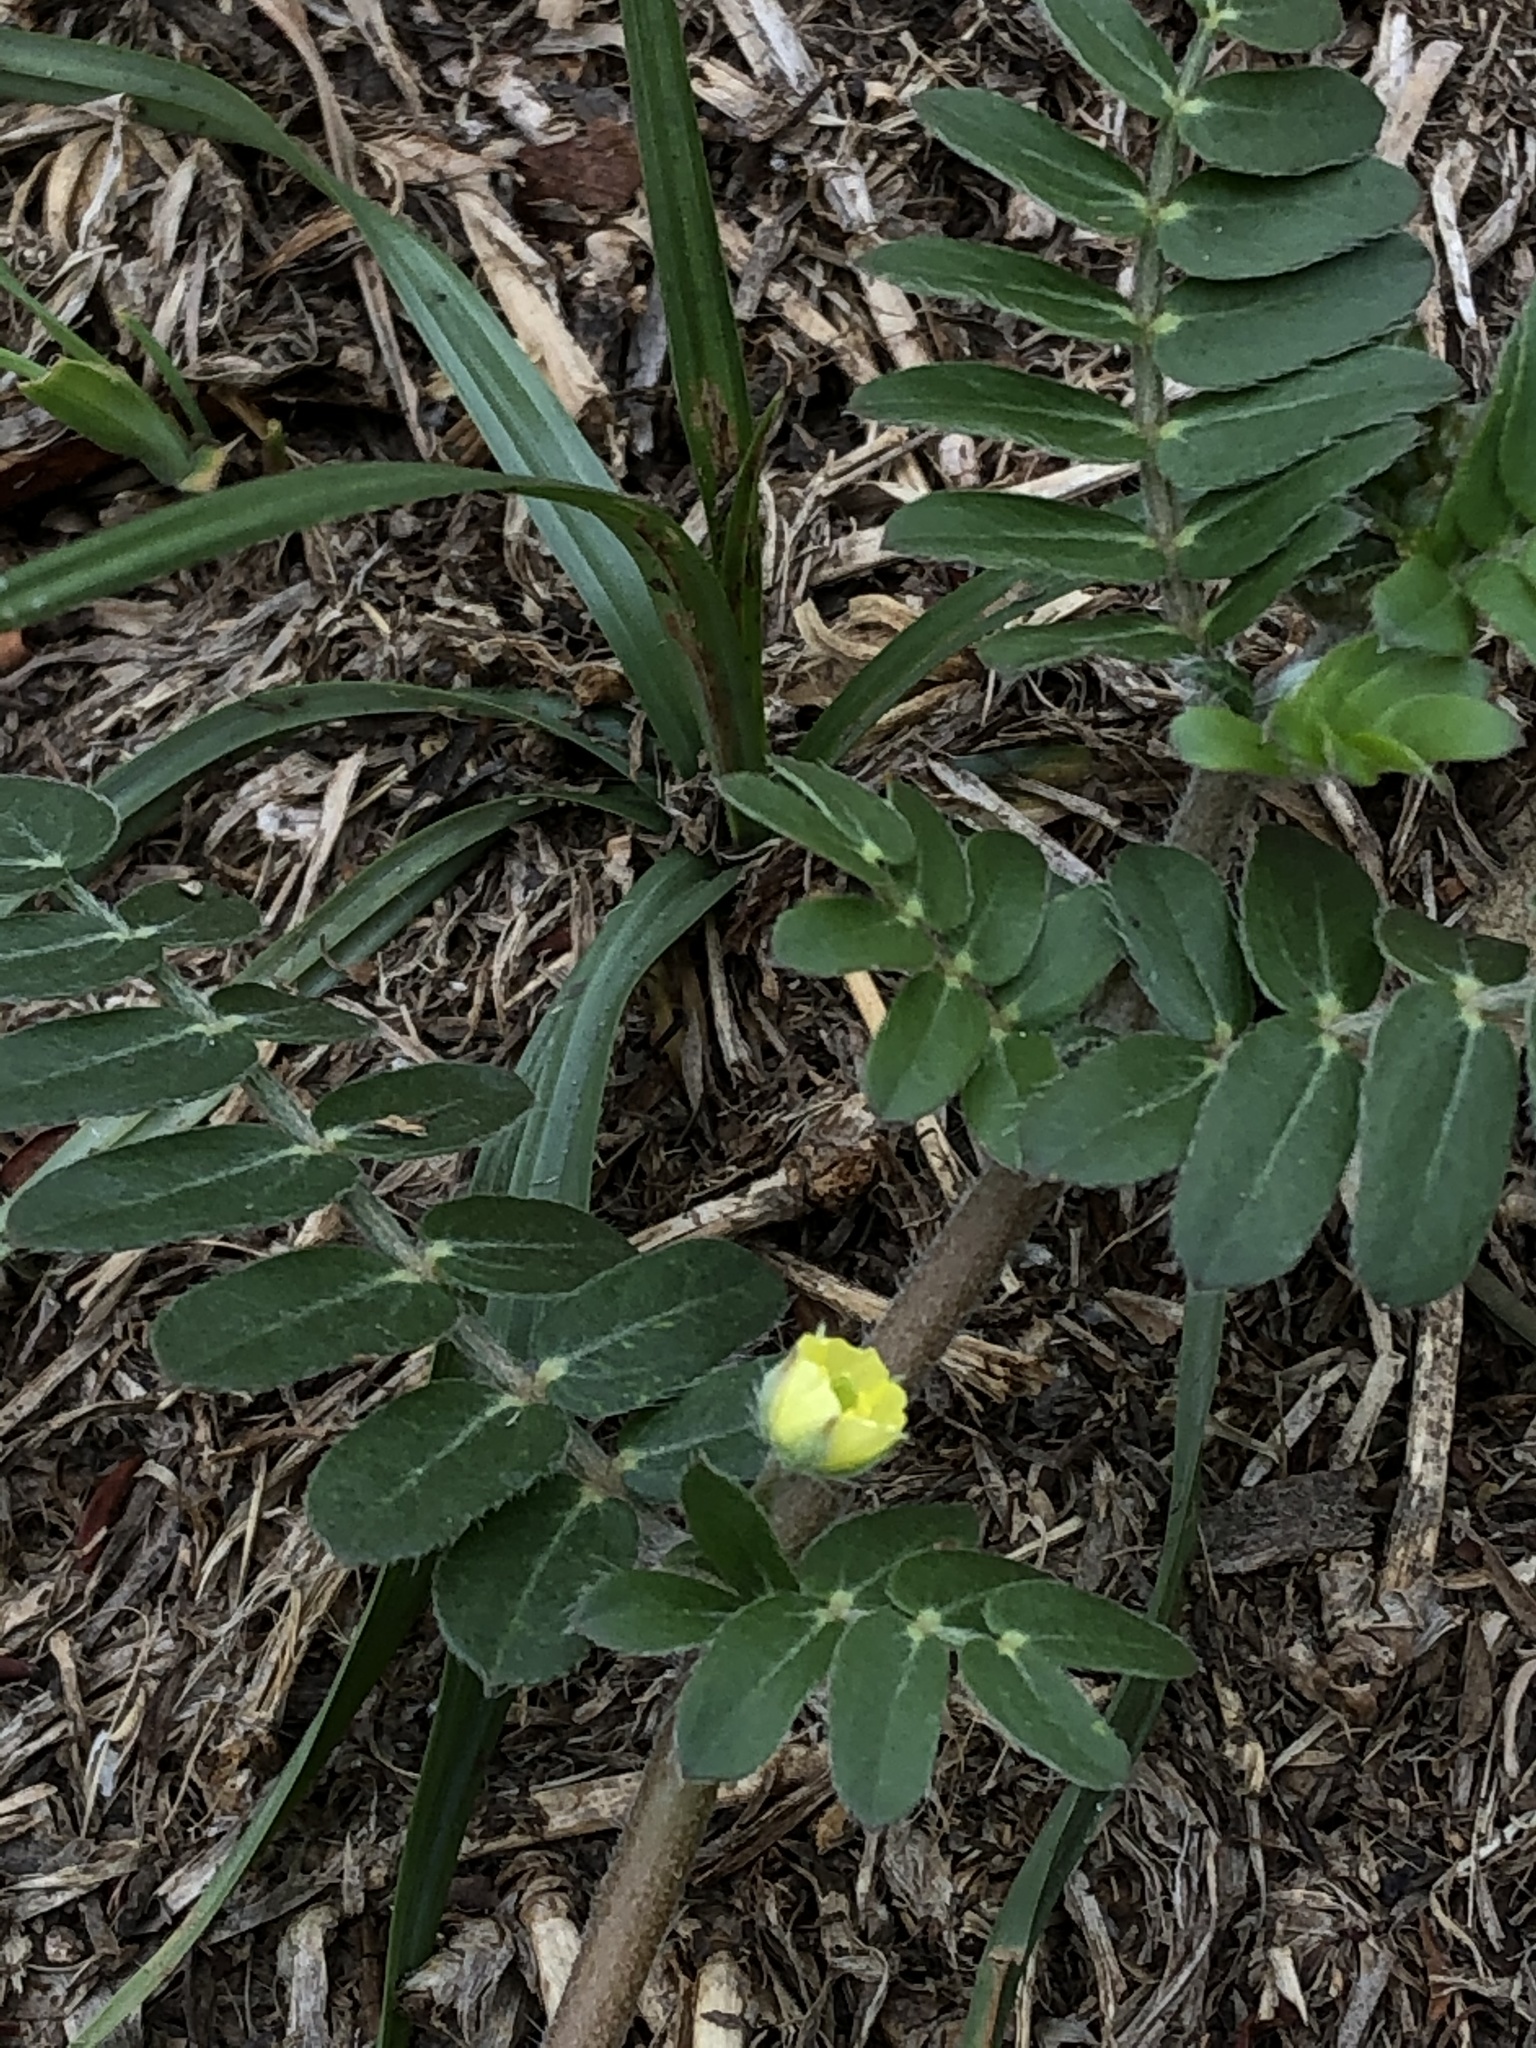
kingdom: Plantae
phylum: Tracheophyta
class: Magnoliopsida
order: Zygophyllales
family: Zygophyllaceae
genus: Tribulus
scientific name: Tribulus terrestris
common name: Puncturevine
